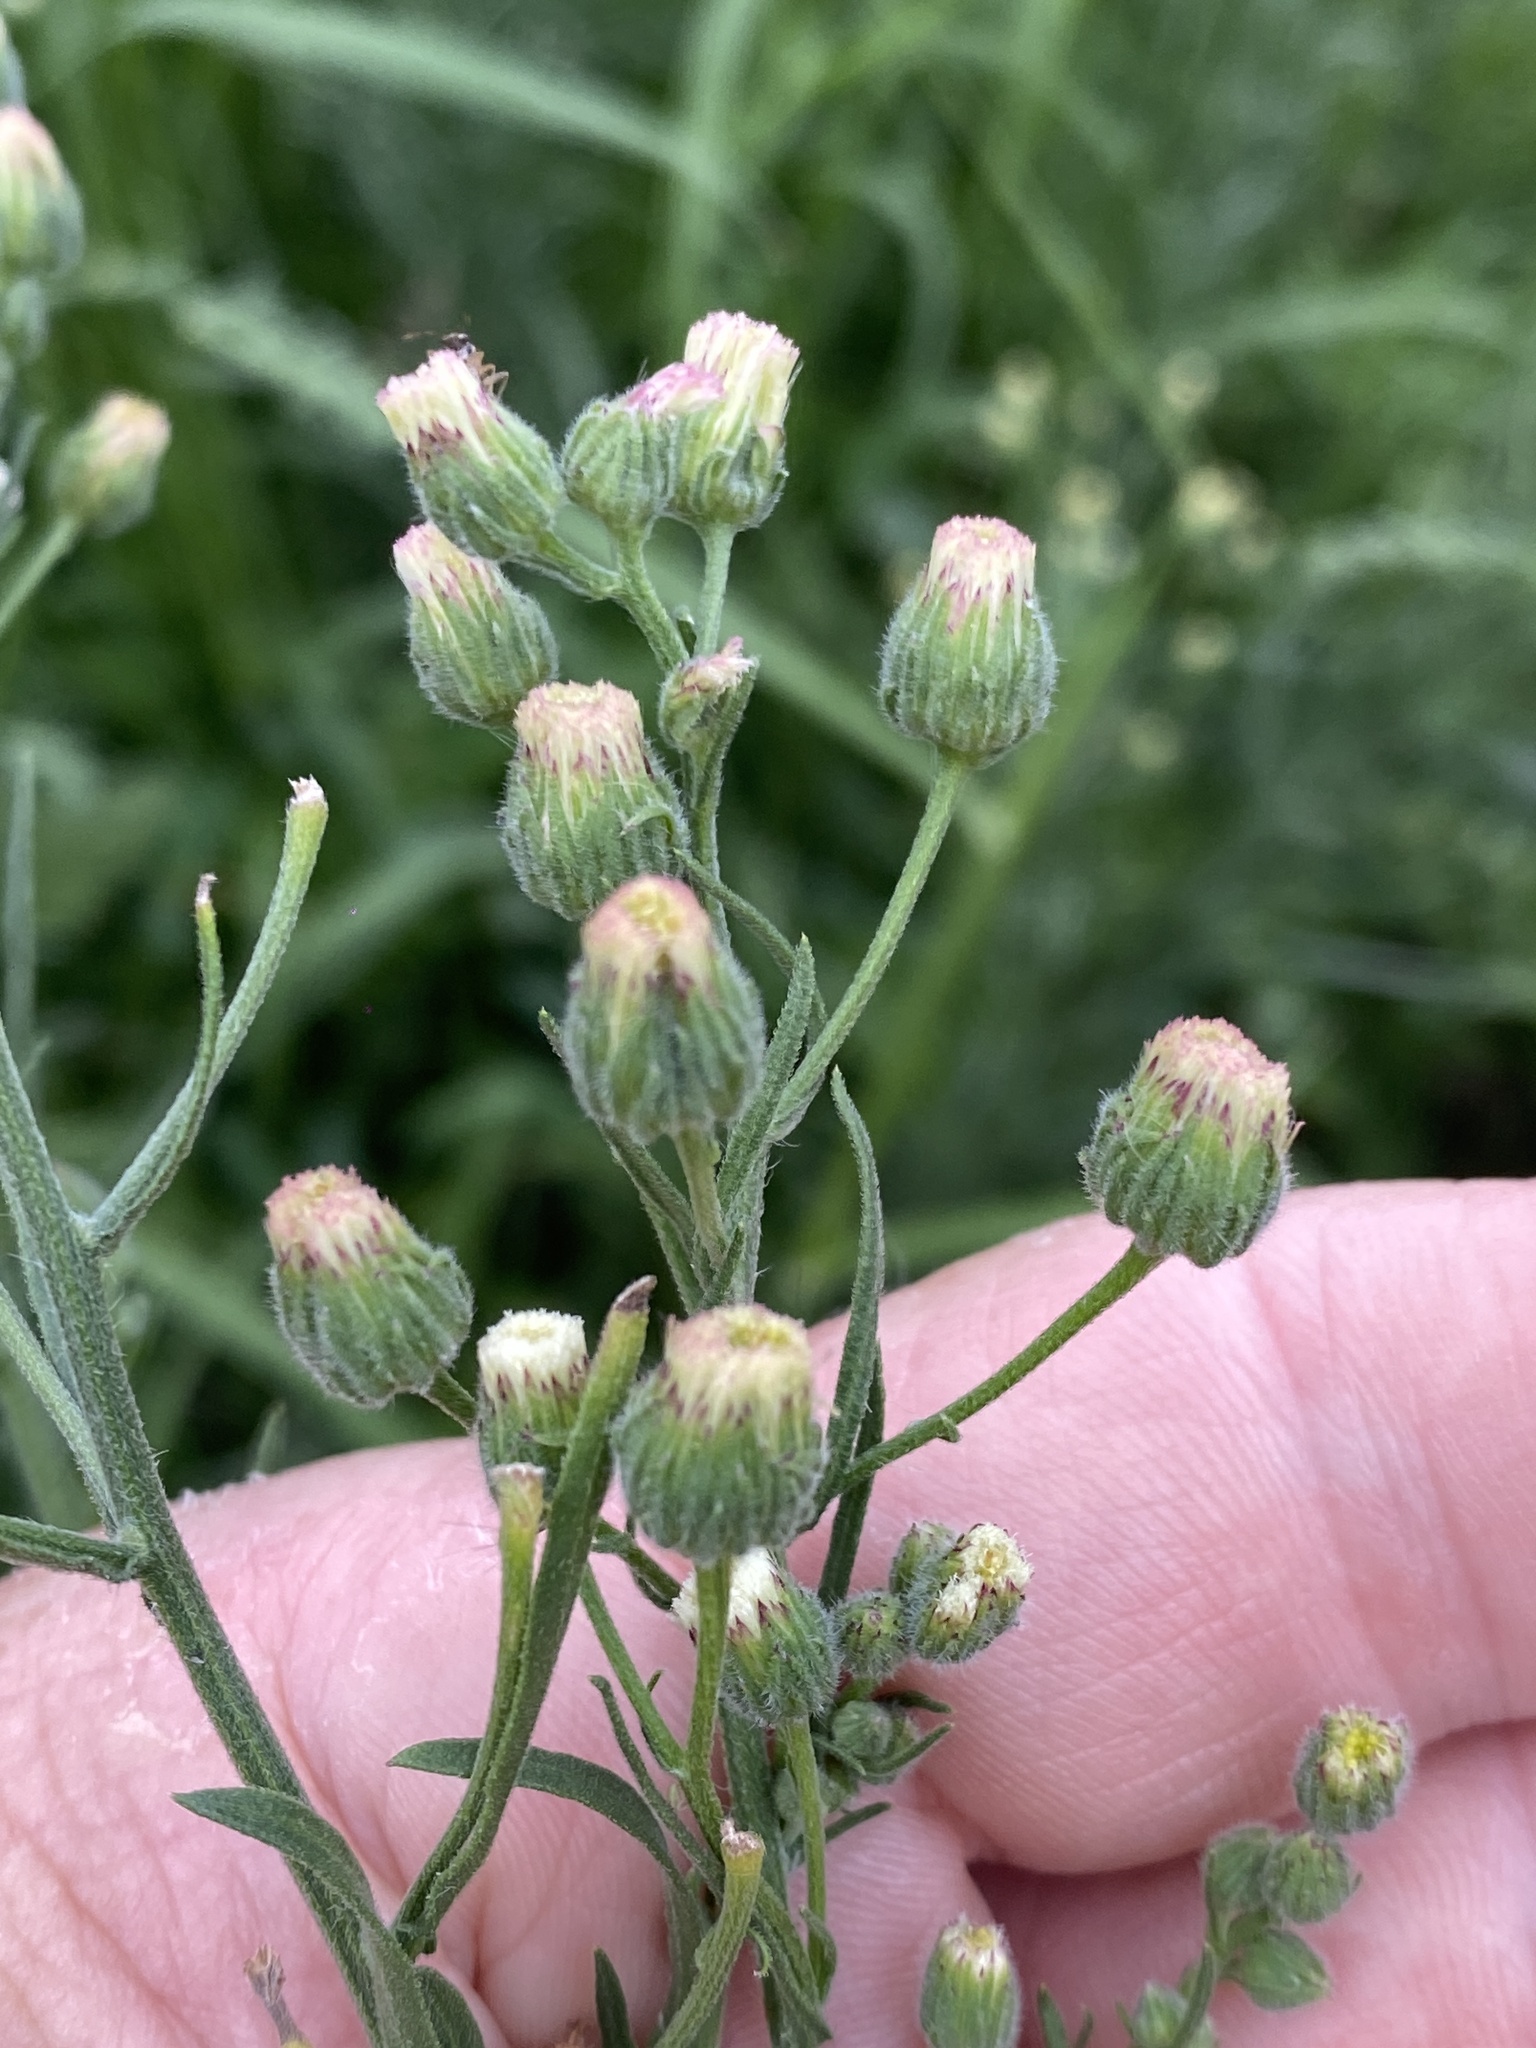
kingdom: Plantae
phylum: Tracheophyta
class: Magnoliopsida
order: Asterales
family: Asteraceae
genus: Erigeron
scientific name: Erigeron bonariensis
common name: Argentine fleabane
